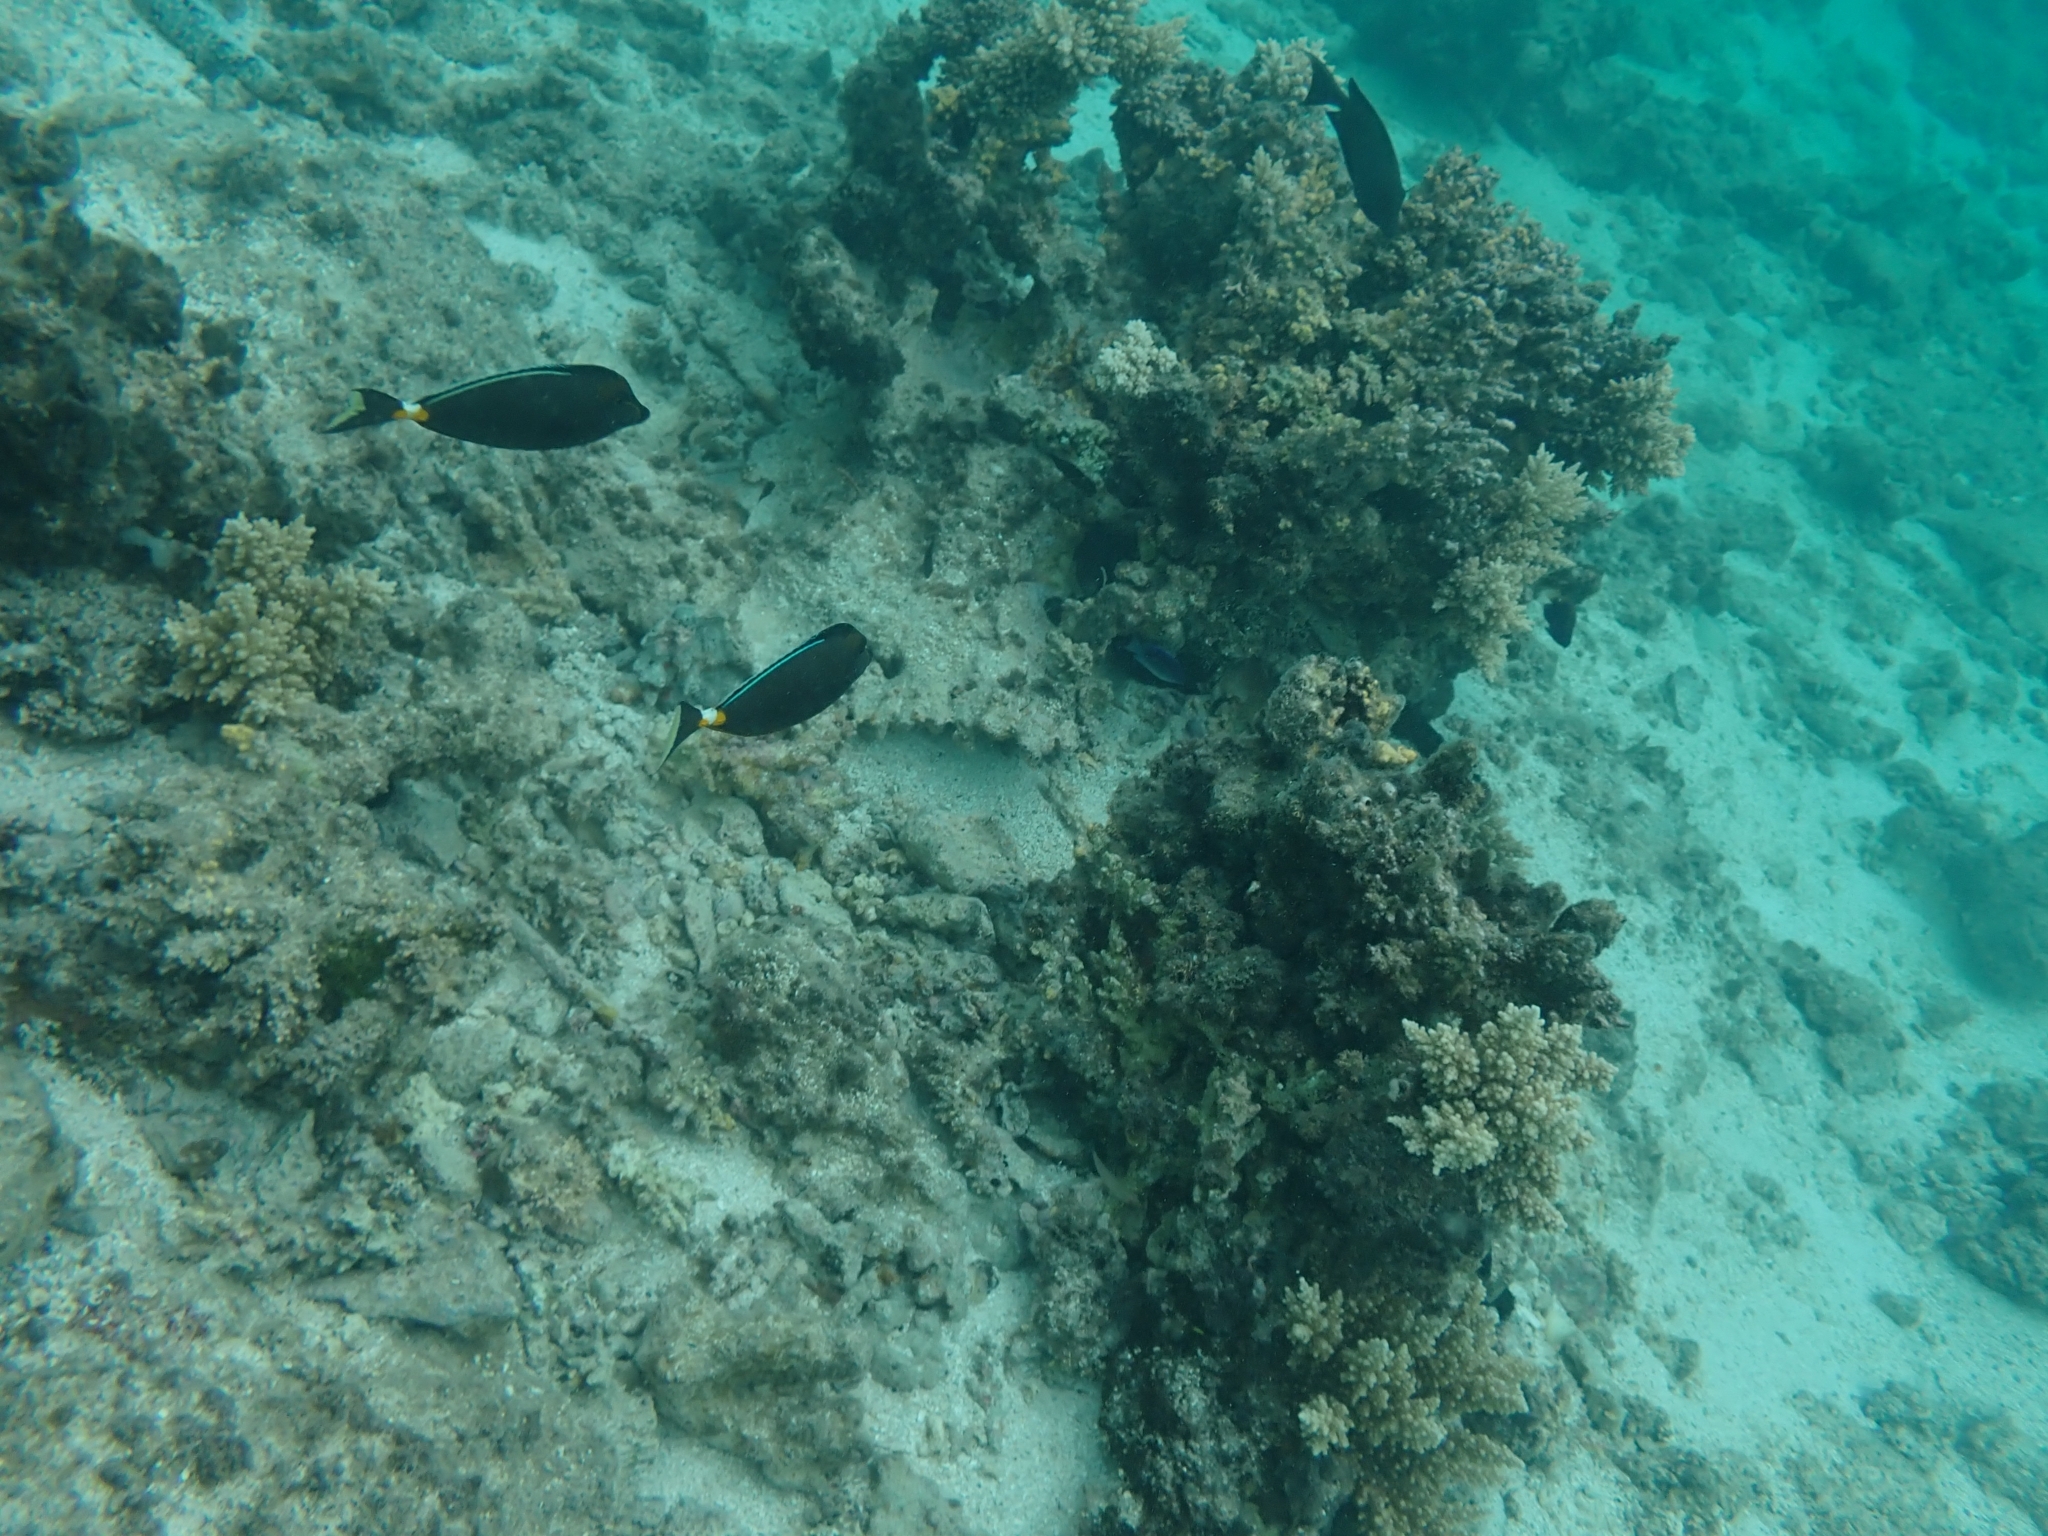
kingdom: Animalia
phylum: Chordata
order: Perciformes
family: Acanthuridae
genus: Naso
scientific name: Naso lituratus
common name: Orangespine unicornfish
